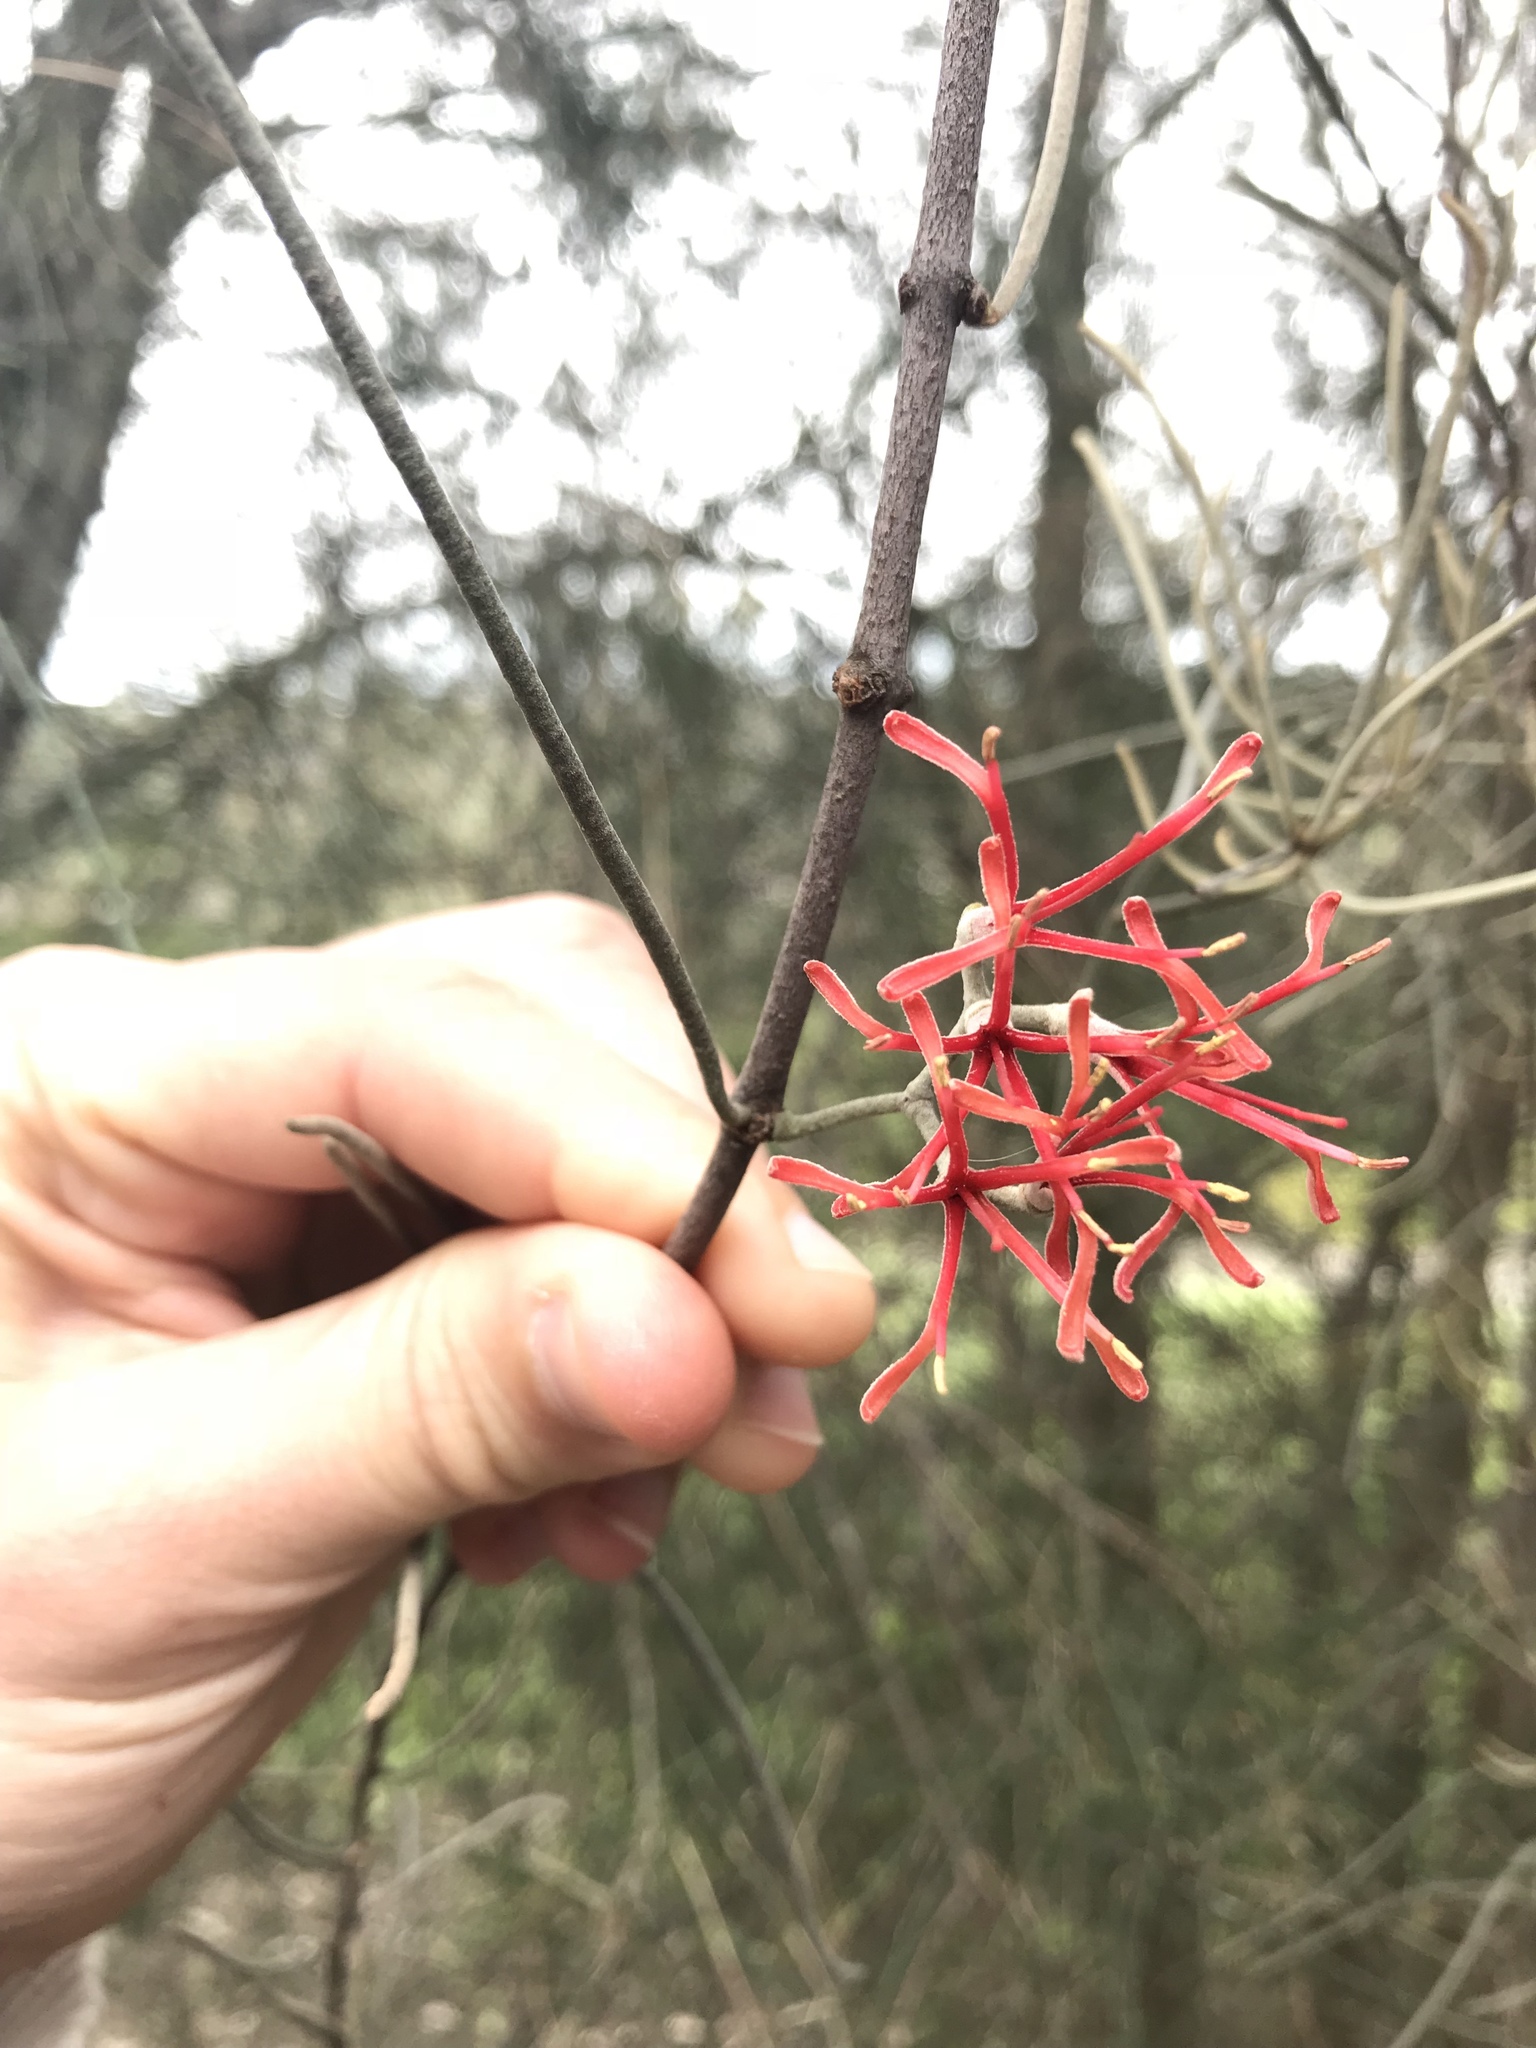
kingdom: Plantae
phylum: Tracheophyta
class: Magnoliopsida
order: Santalales
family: Loranthaceae
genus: Amyema
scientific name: Amyema linophylla
